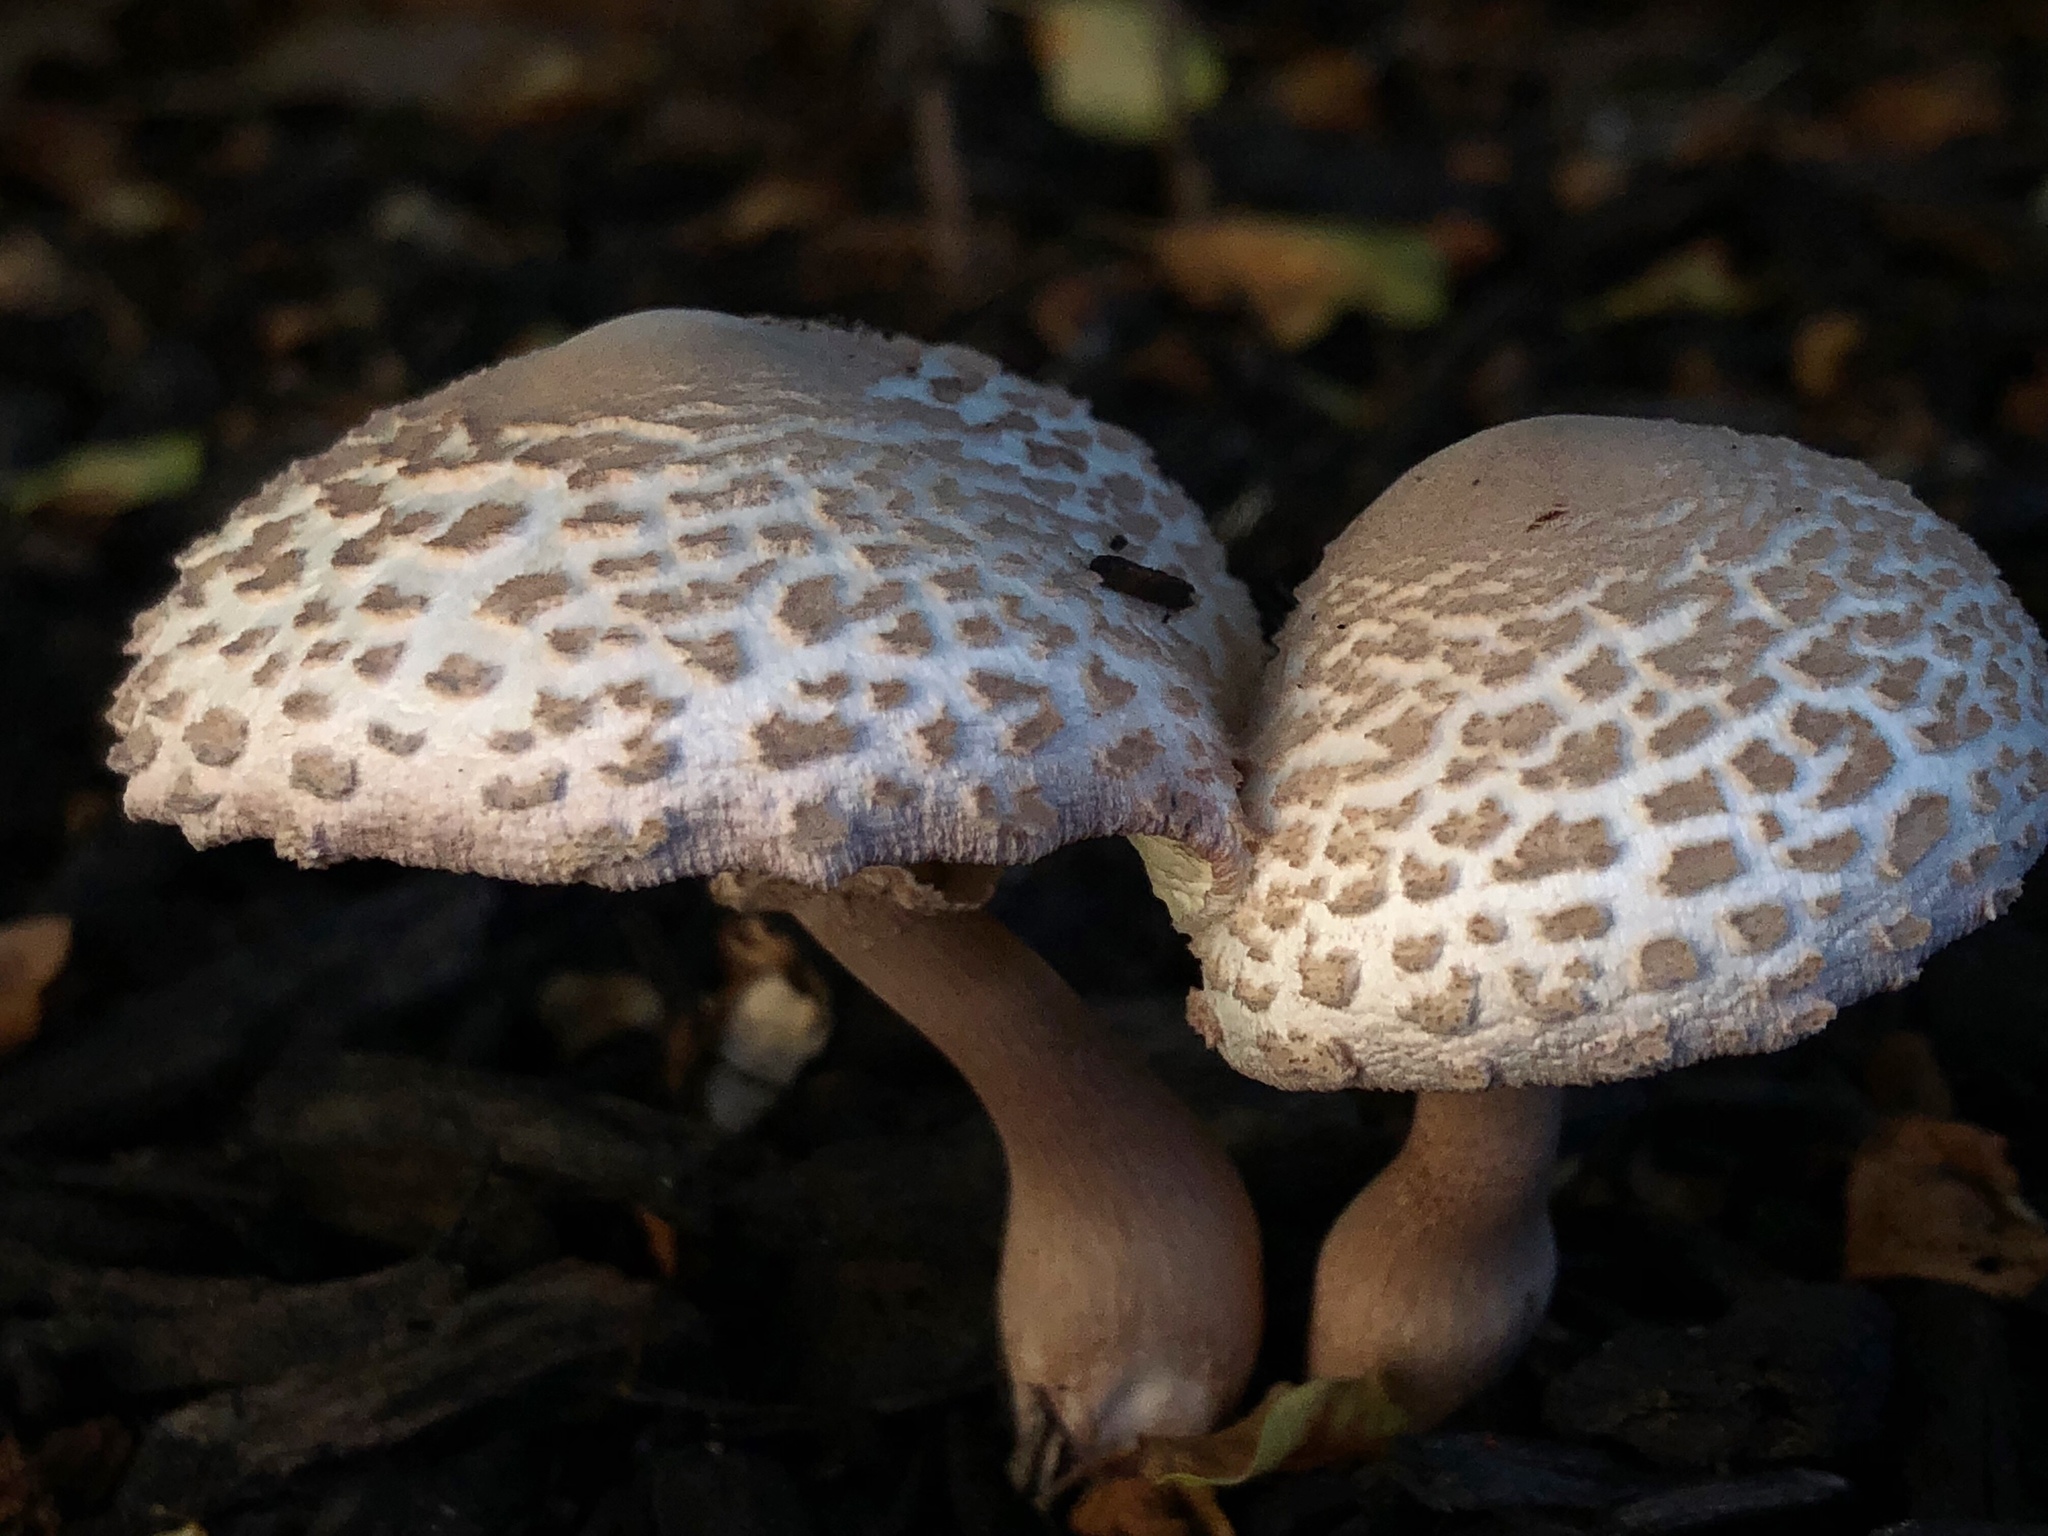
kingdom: Fungi
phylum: Basidiomycota
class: Agaricomycetes
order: Agaricales
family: Agaricaceae
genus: Leucoagaricus
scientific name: Leucoagaricus americanus
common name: Reddening lepiota
